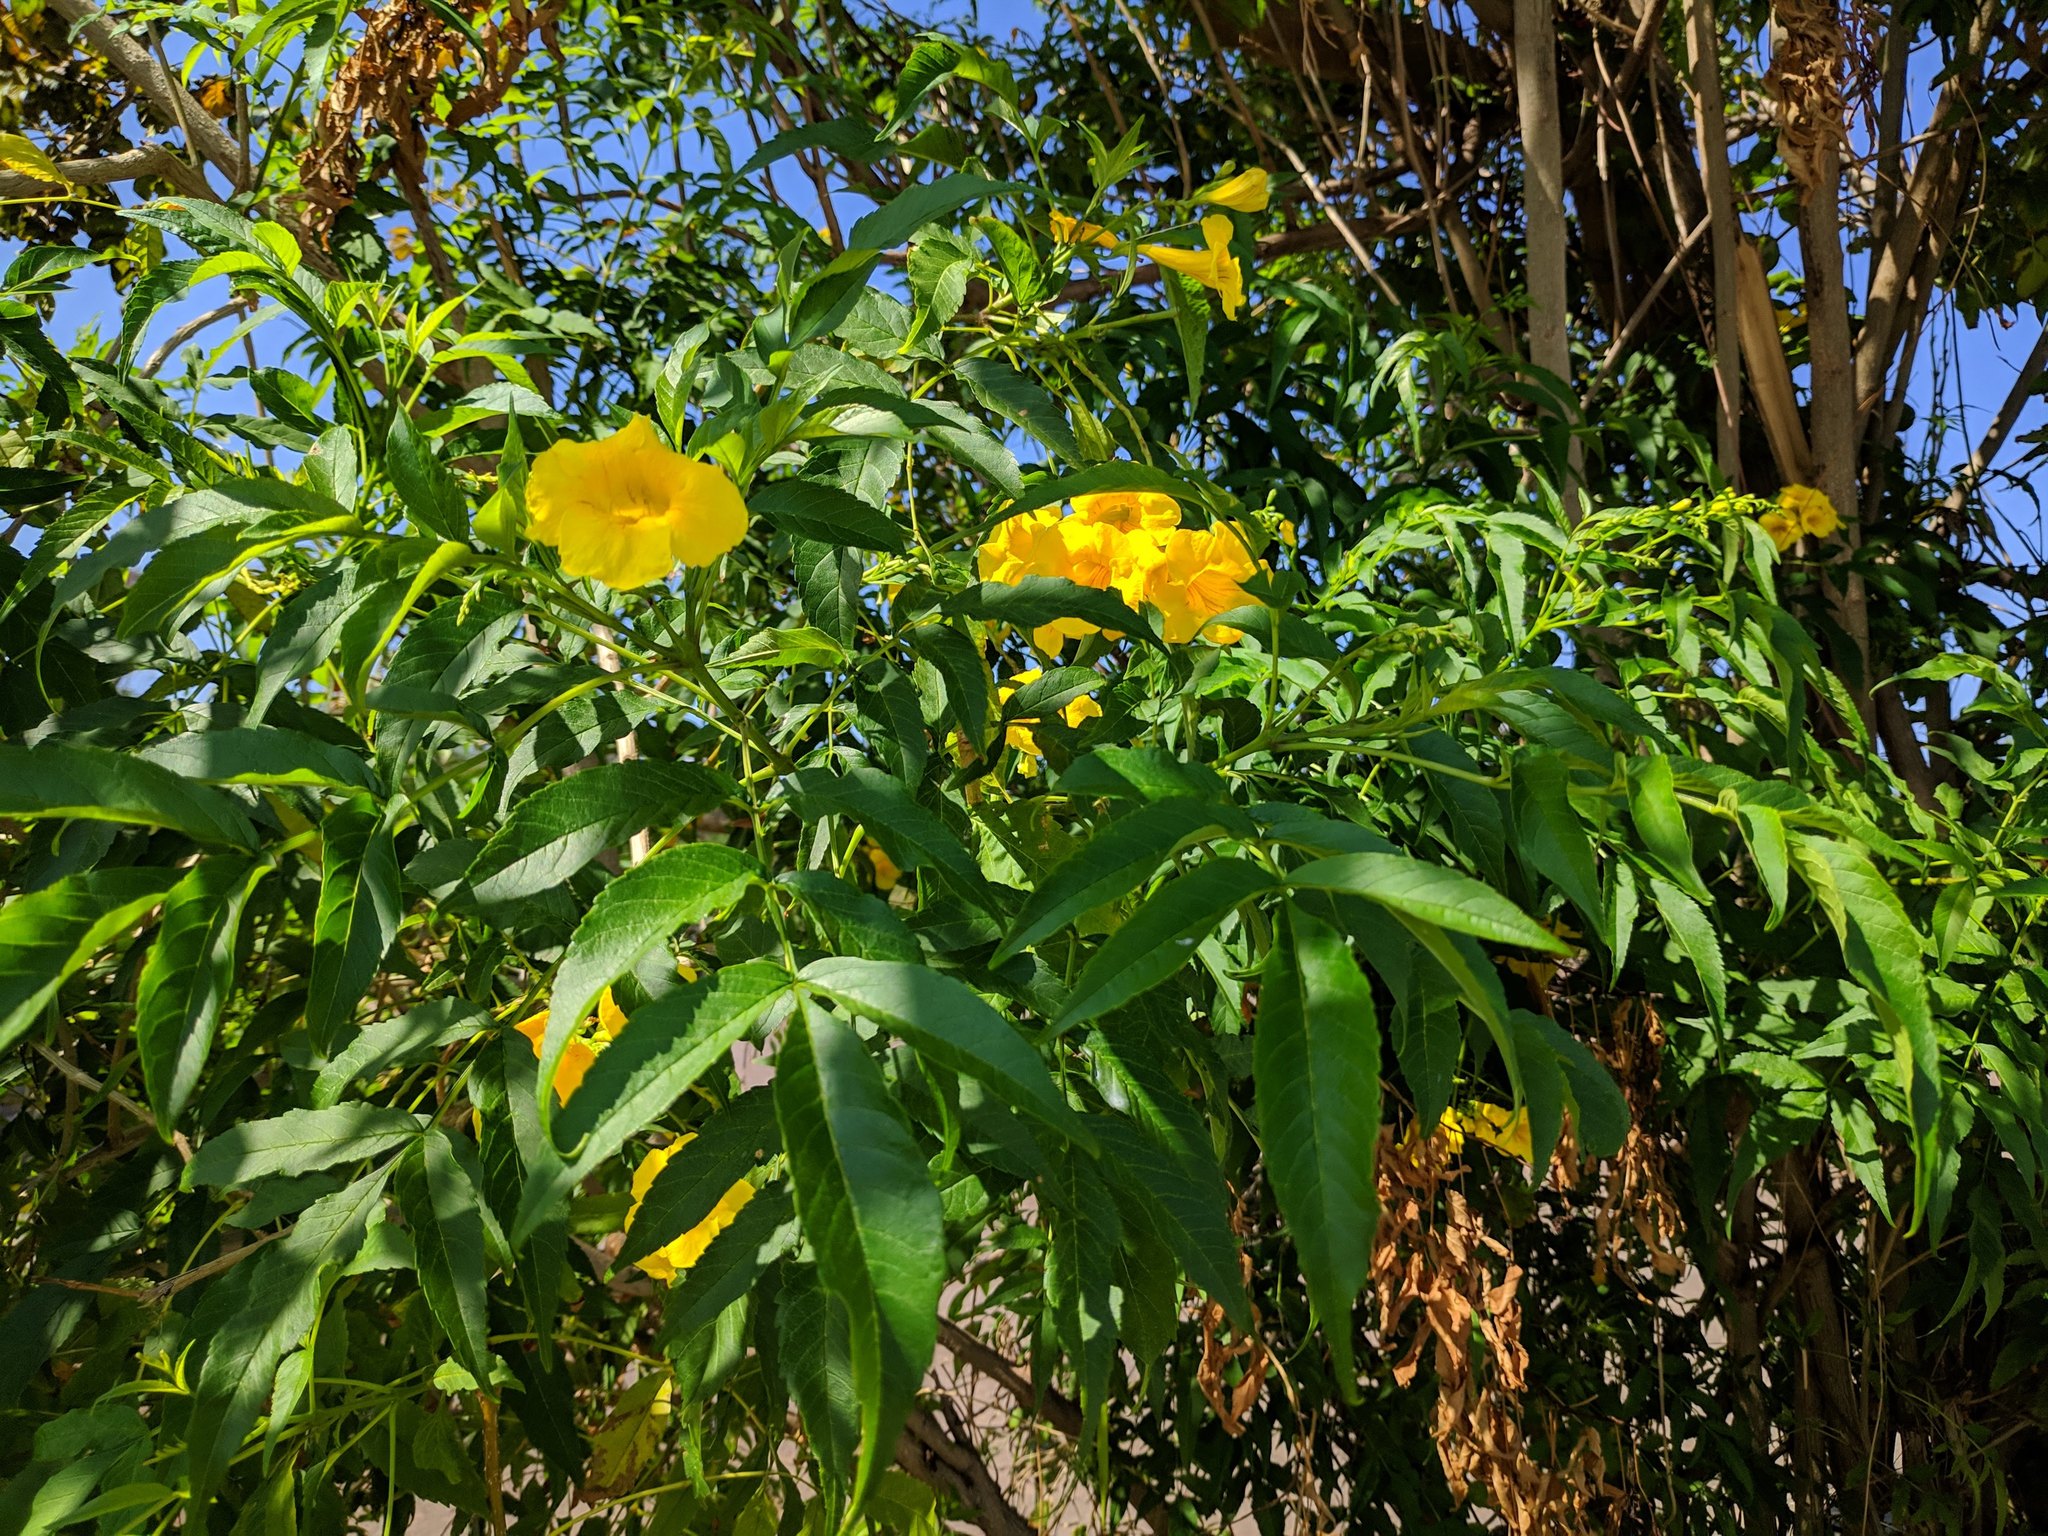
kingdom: Plantae
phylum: Tracheophyta
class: Magnoliopsida
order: Lamiales
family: Bignoniaceae
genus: Tecoma
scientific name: Tecoma stans
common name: Yellow trumpetbush
